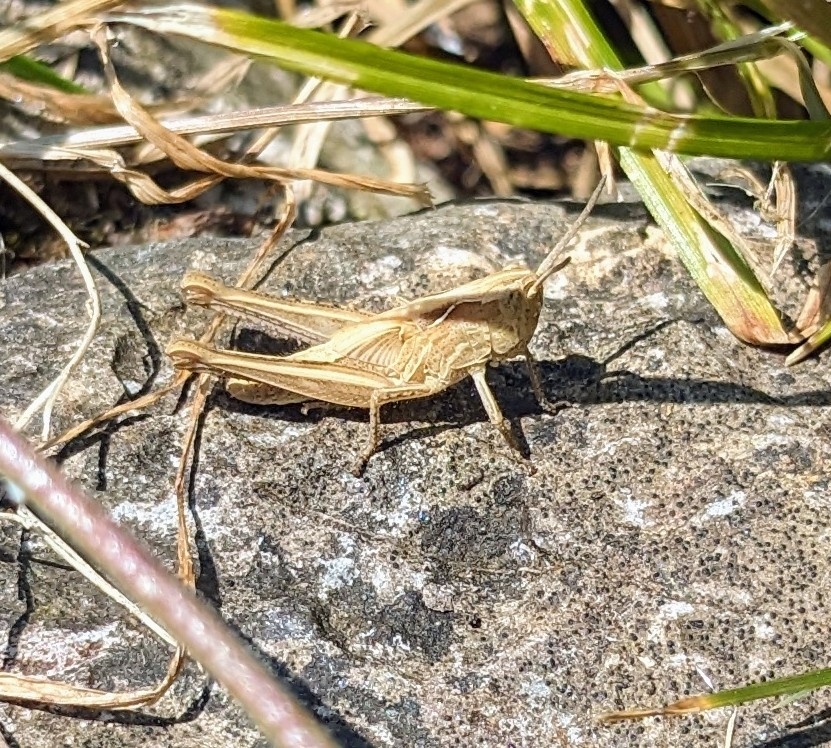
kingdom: Animalia
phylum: Arthropoda
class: Insecta
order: Orthoptera
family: Acrididae
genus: Chorthippus
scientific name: Chorthippus brunneus
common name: Field grasshopper
